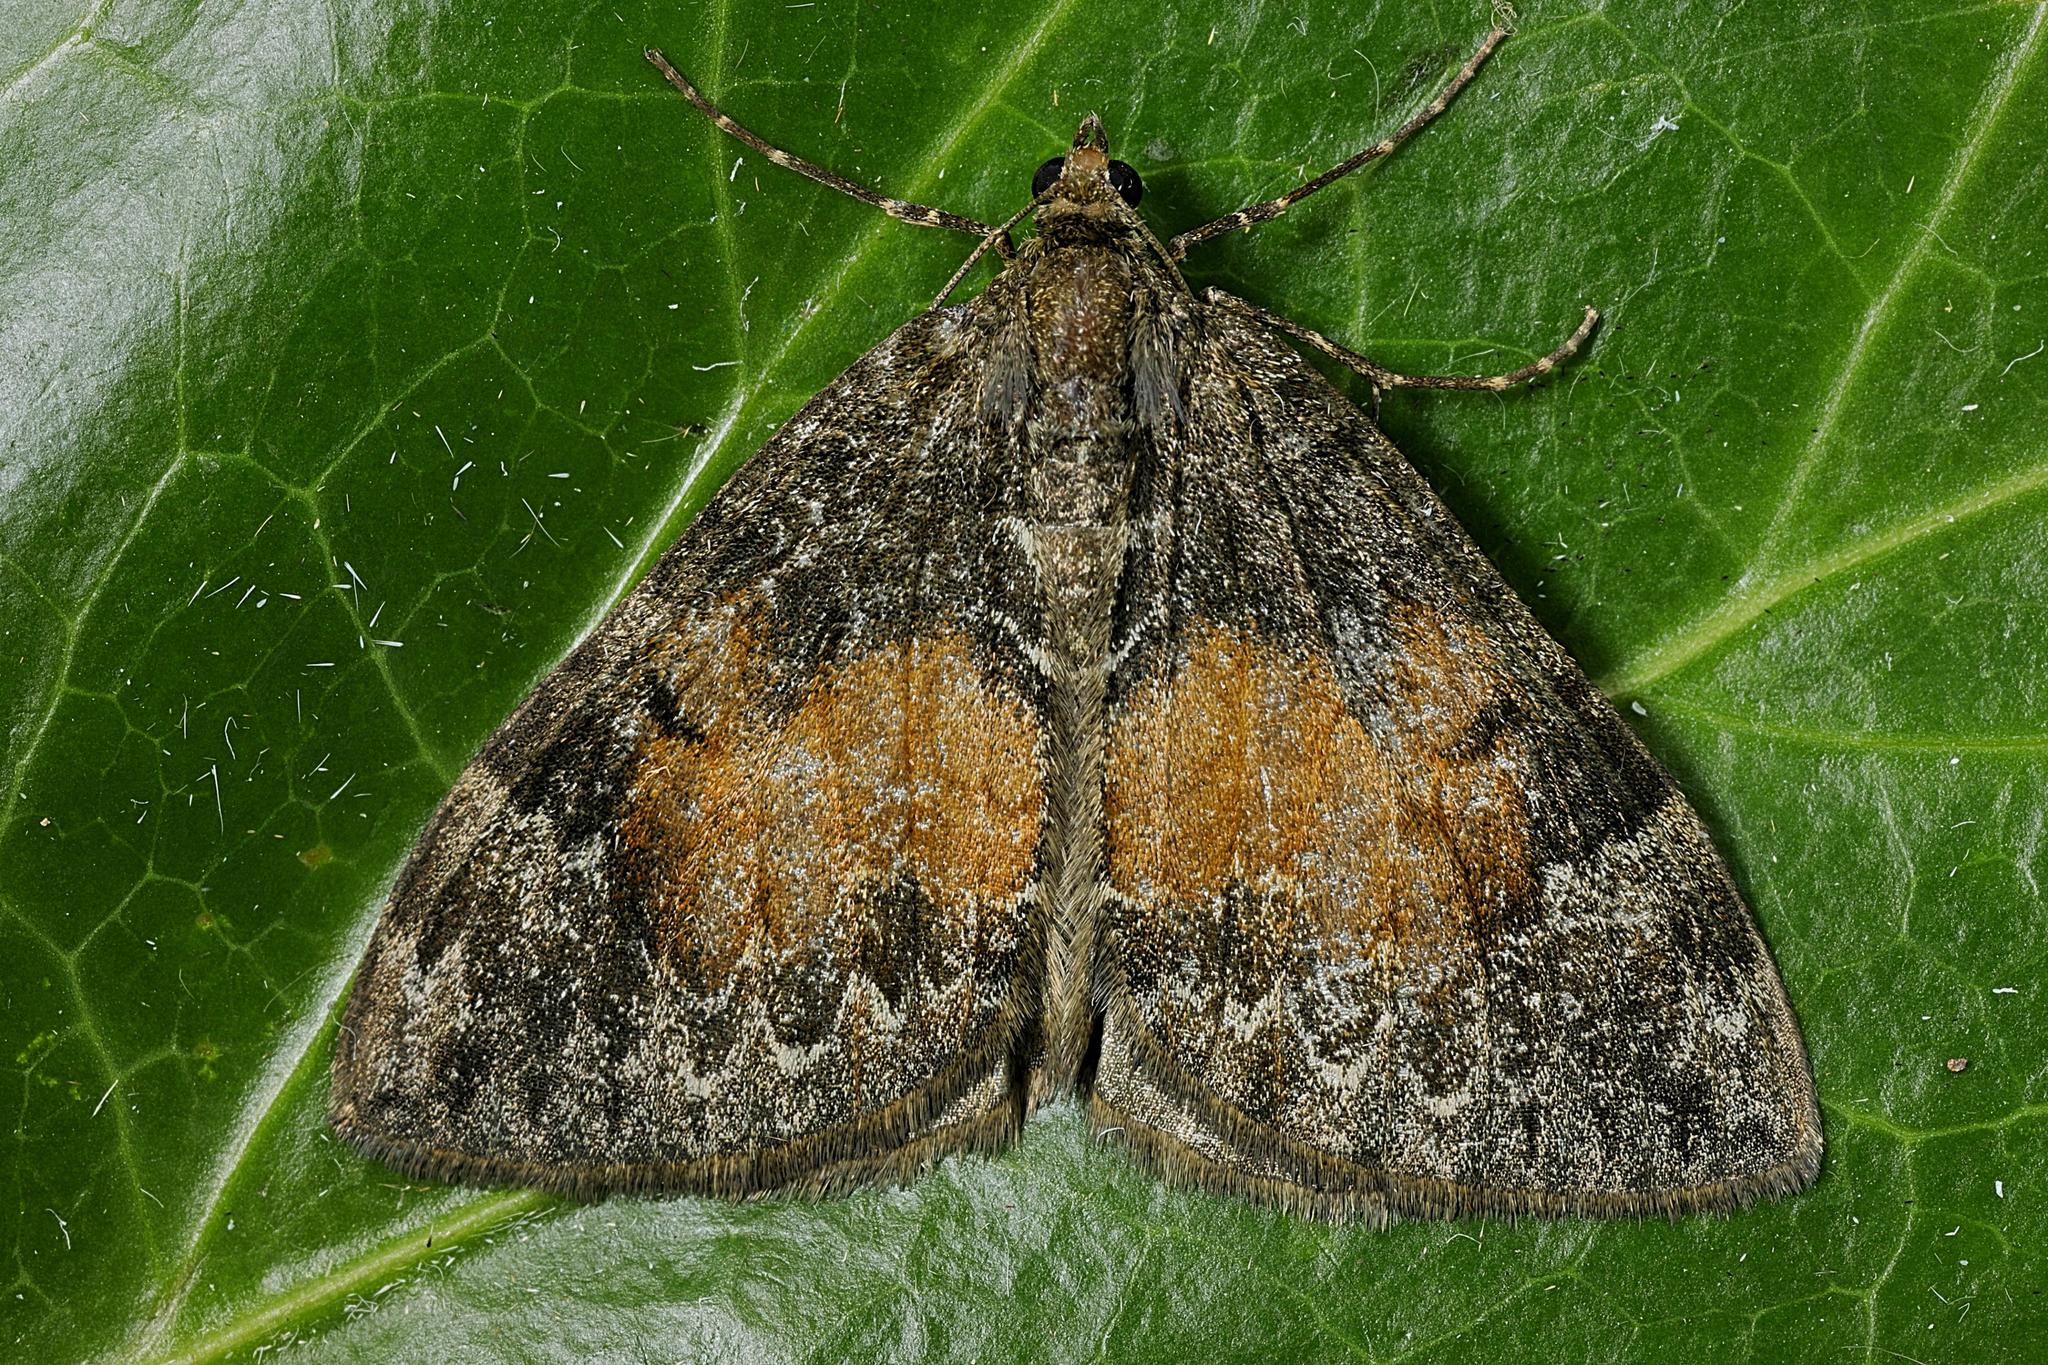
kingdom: Animalia
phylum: Arthropoda
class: Insecta
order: Lepidoptera
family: Geometridae
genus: Dysstroma
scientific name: Dysstroma truncata
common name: Common marbled carpet
